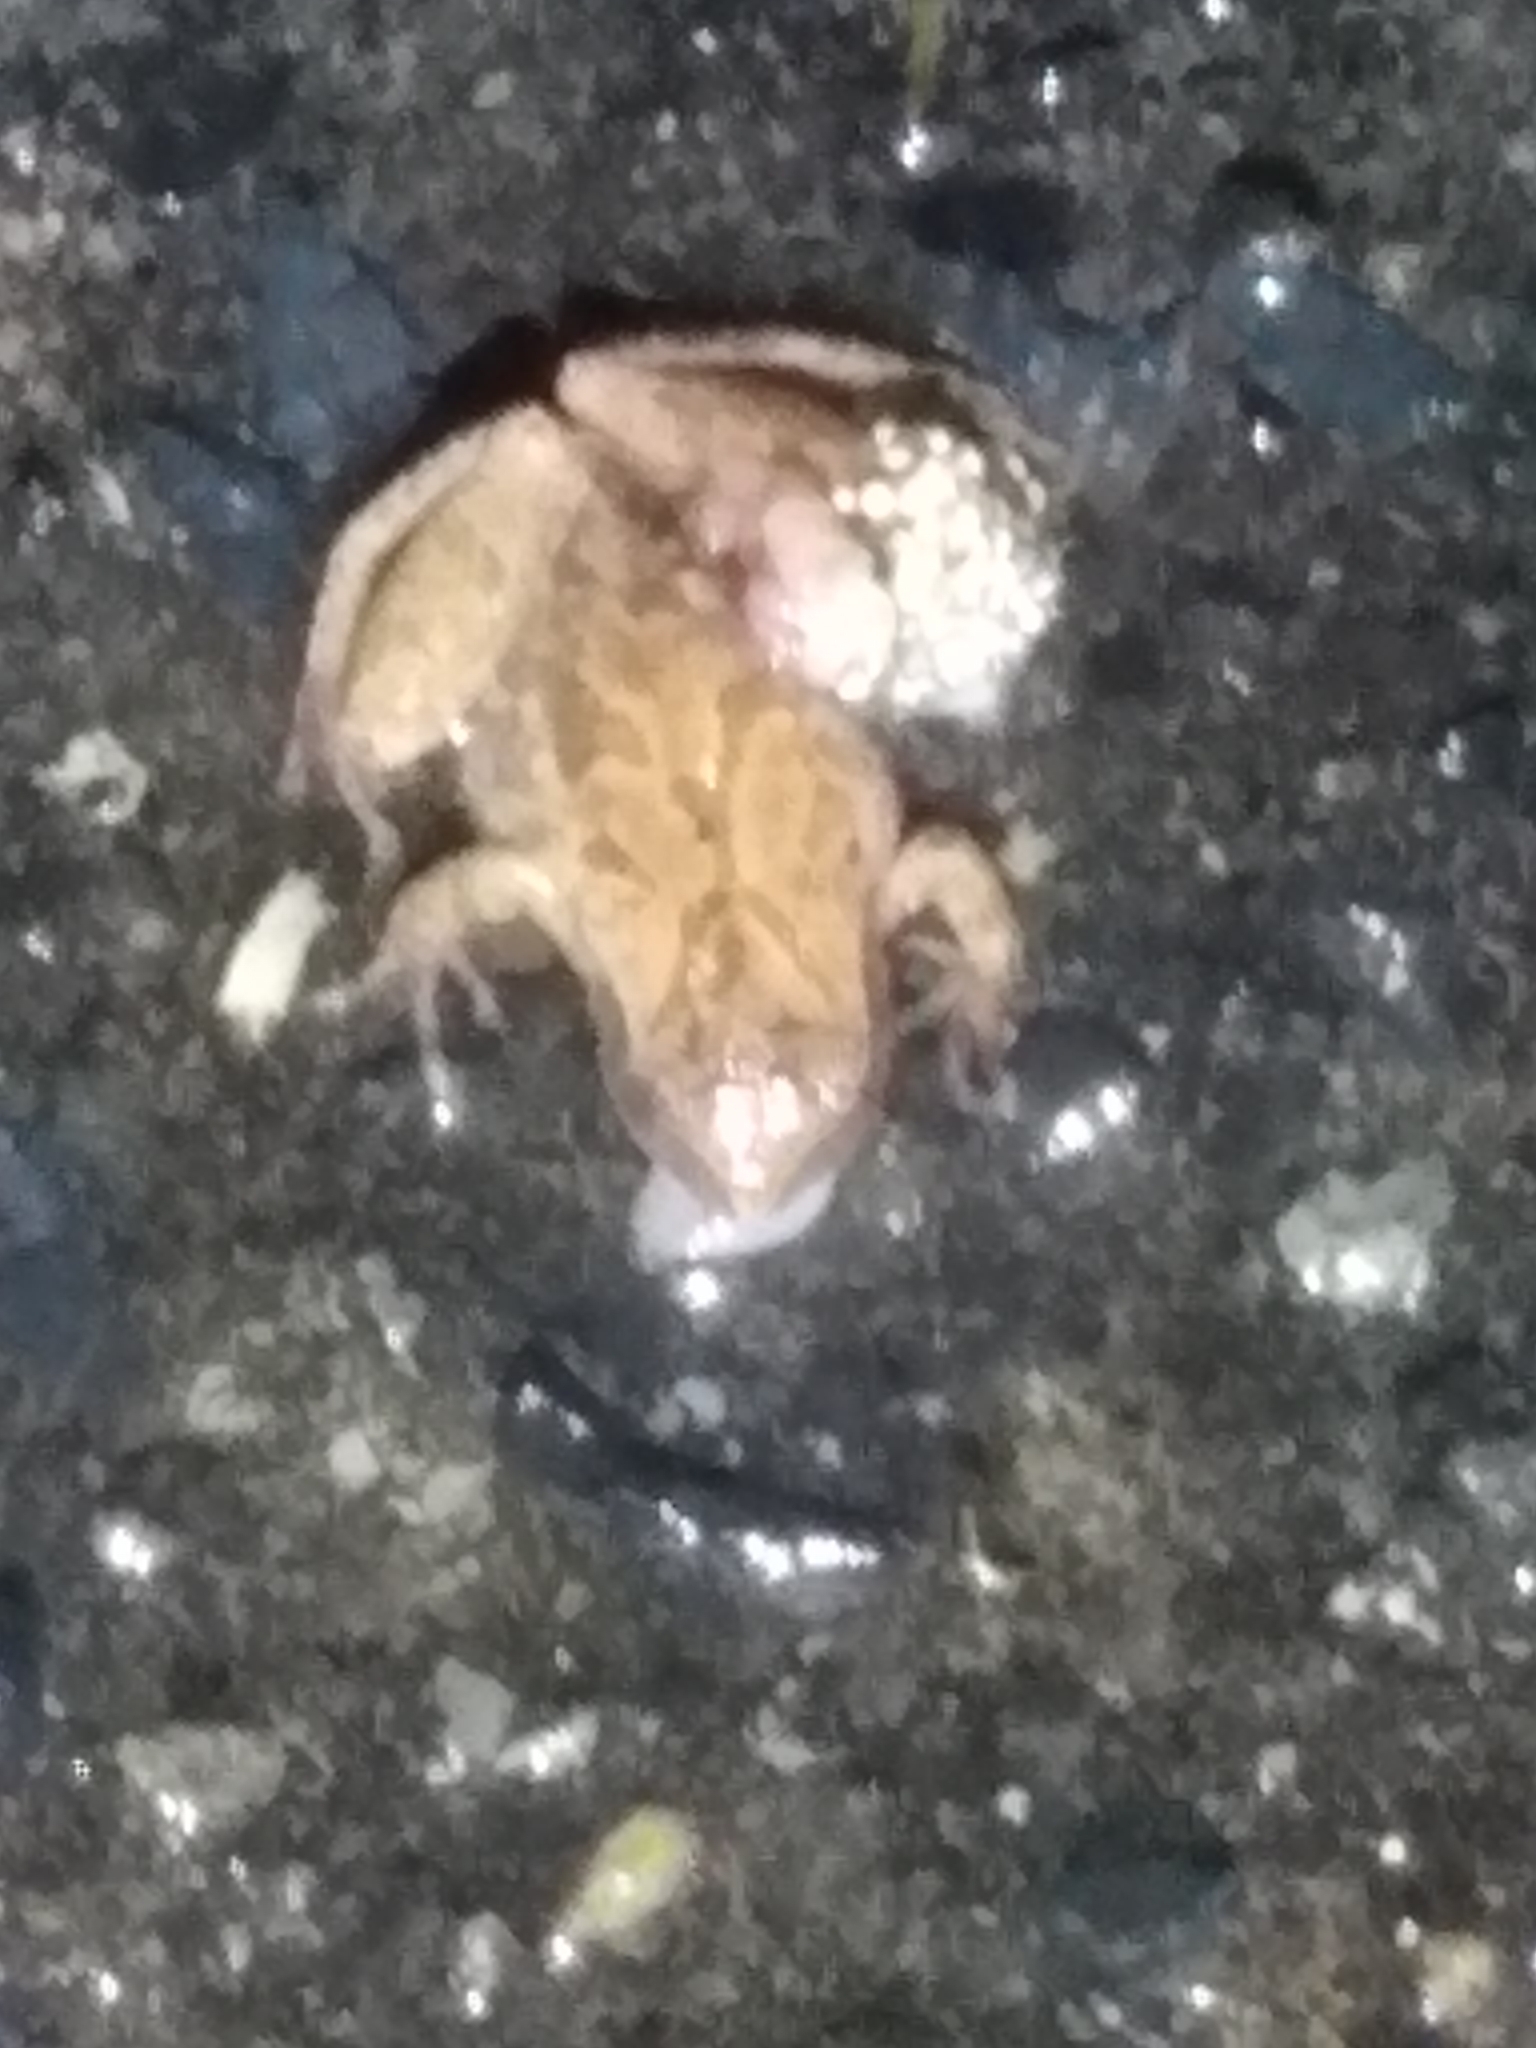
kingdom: Animalia
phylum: Chordata
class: Amphibia
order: Anura
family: Hylidae
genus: Pseudacris
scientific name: Pseudacris crucifer
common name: Spring peeper
